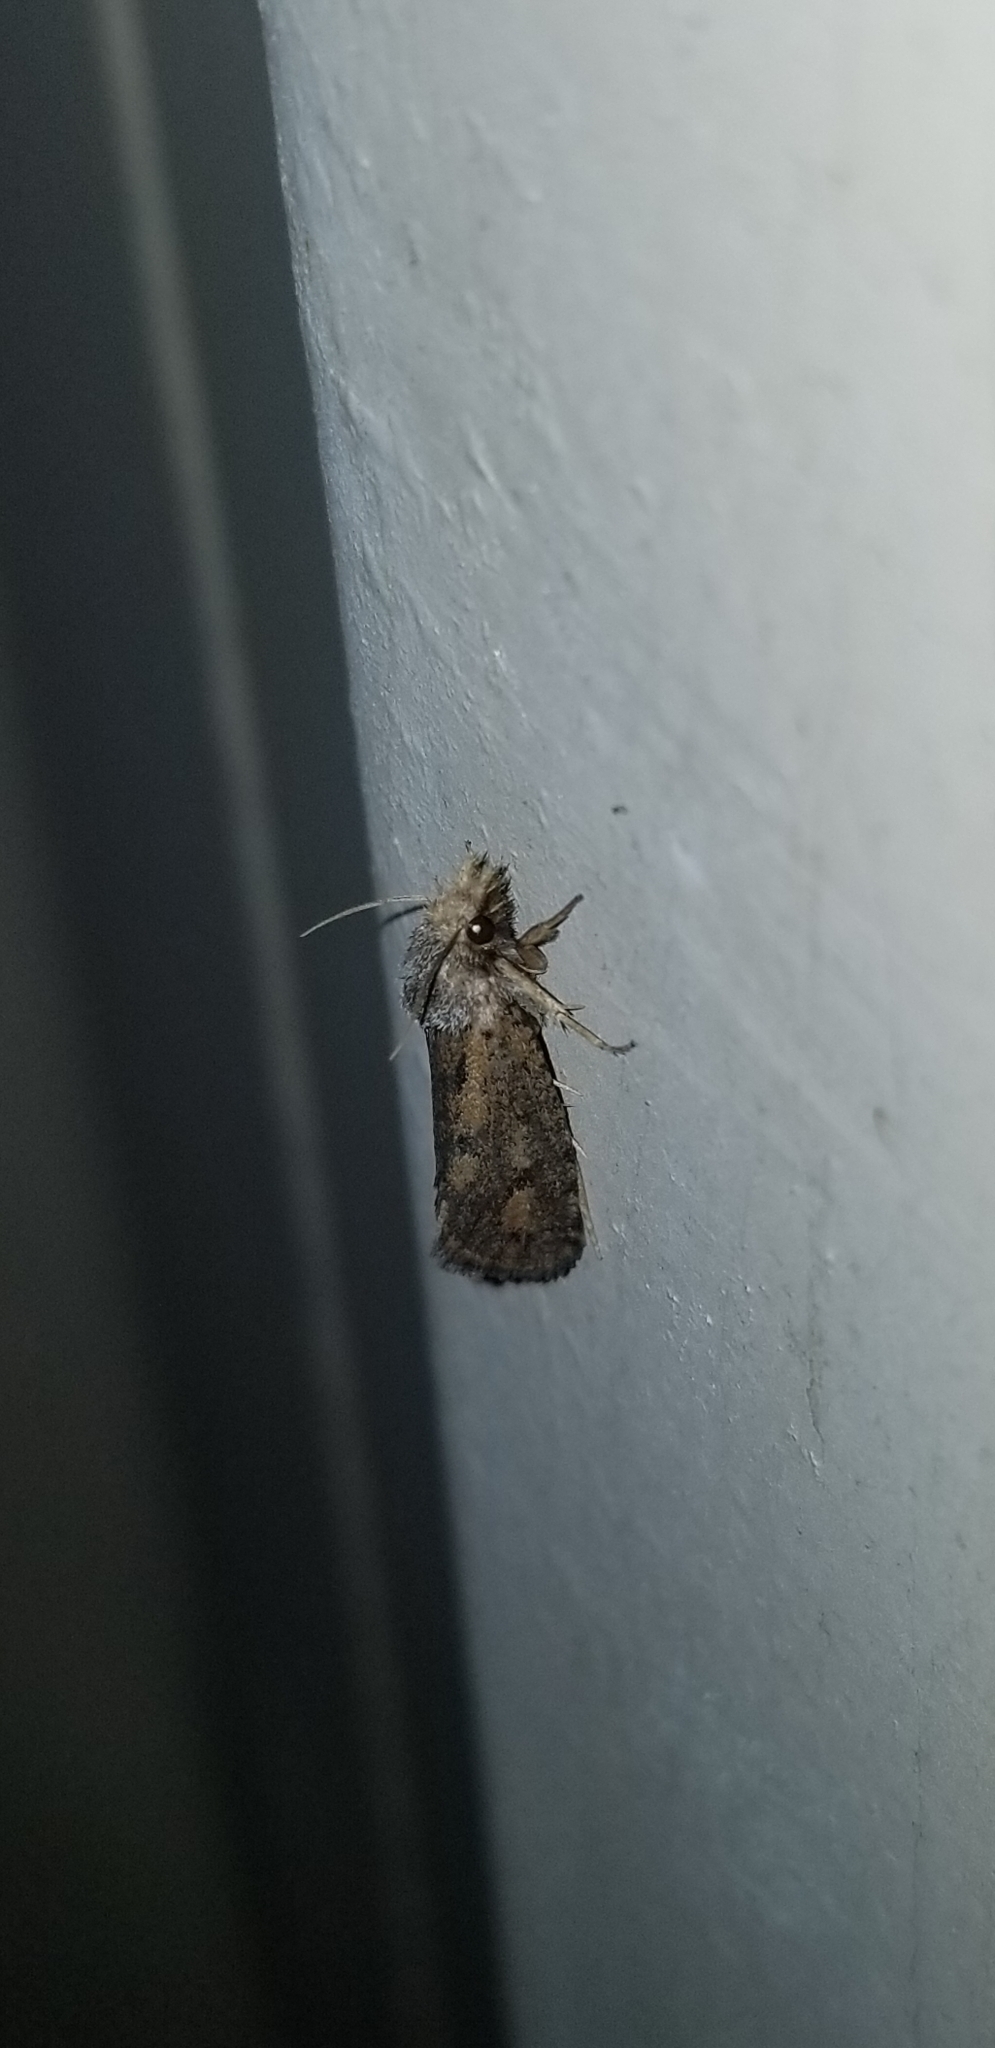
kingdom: Animalia
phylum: Arthropoda
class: Insecta
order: Lepidoptera
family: Tineidae
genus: Acrolophus
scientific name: Acrolophus popeanella
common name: Clemens' grass tubeworm moth
